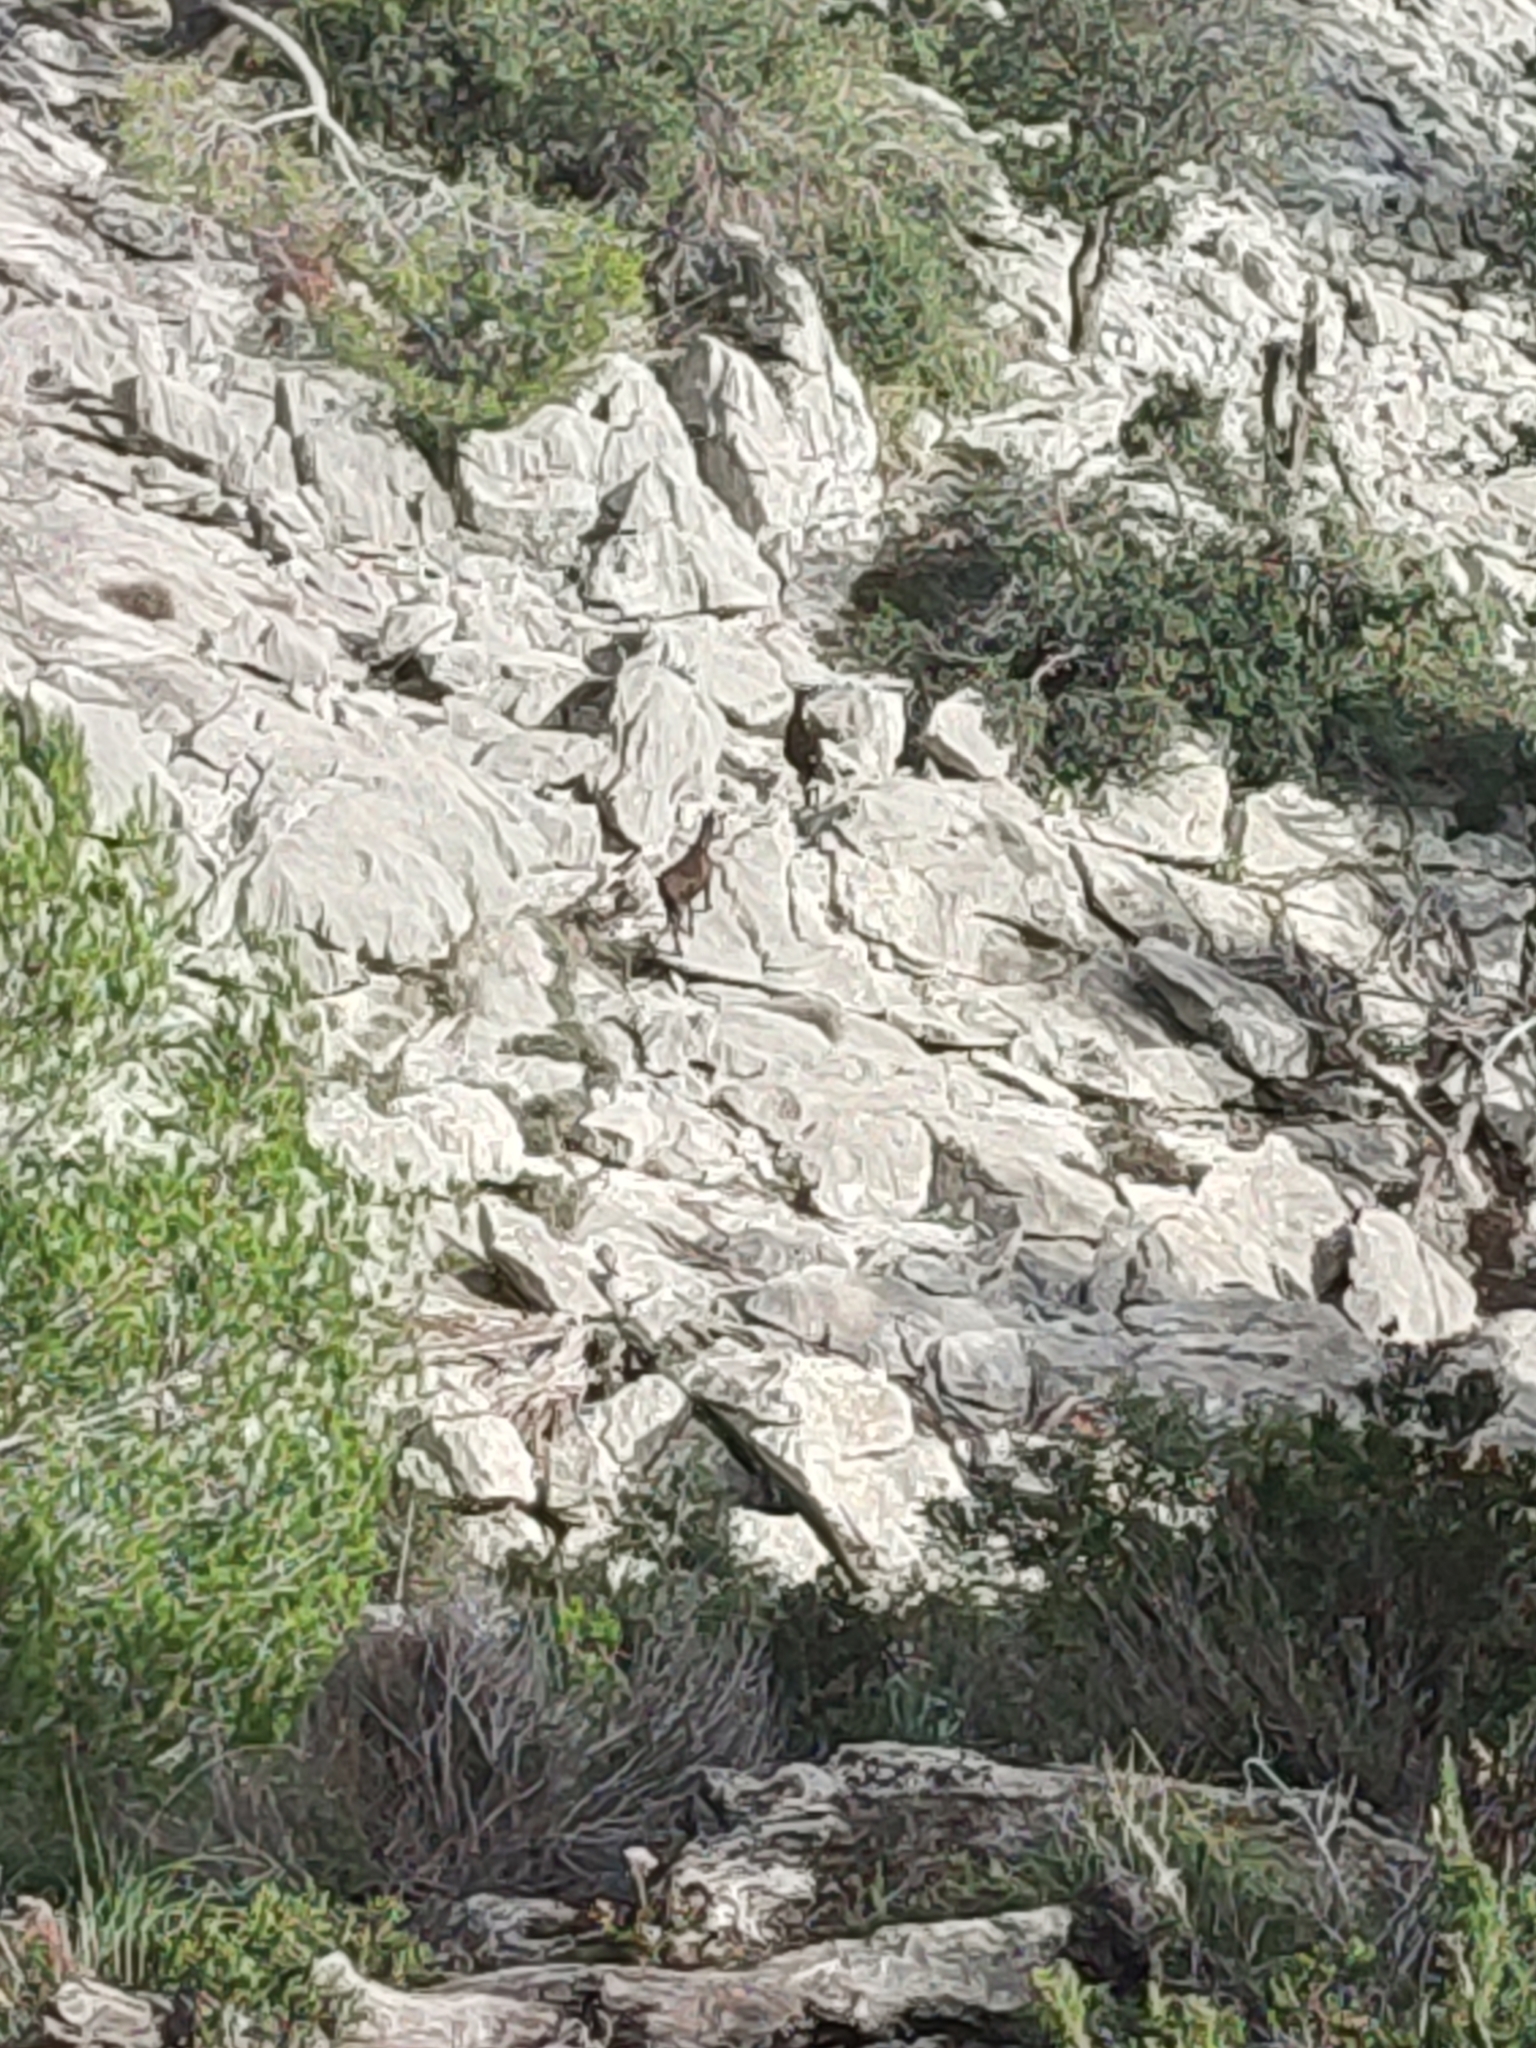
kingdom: Animalia
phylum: Chordata
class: Mammalia
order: Artiodactyla
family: Bovidae
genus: Capra
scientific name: Capra hircus
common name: Domestic goat
